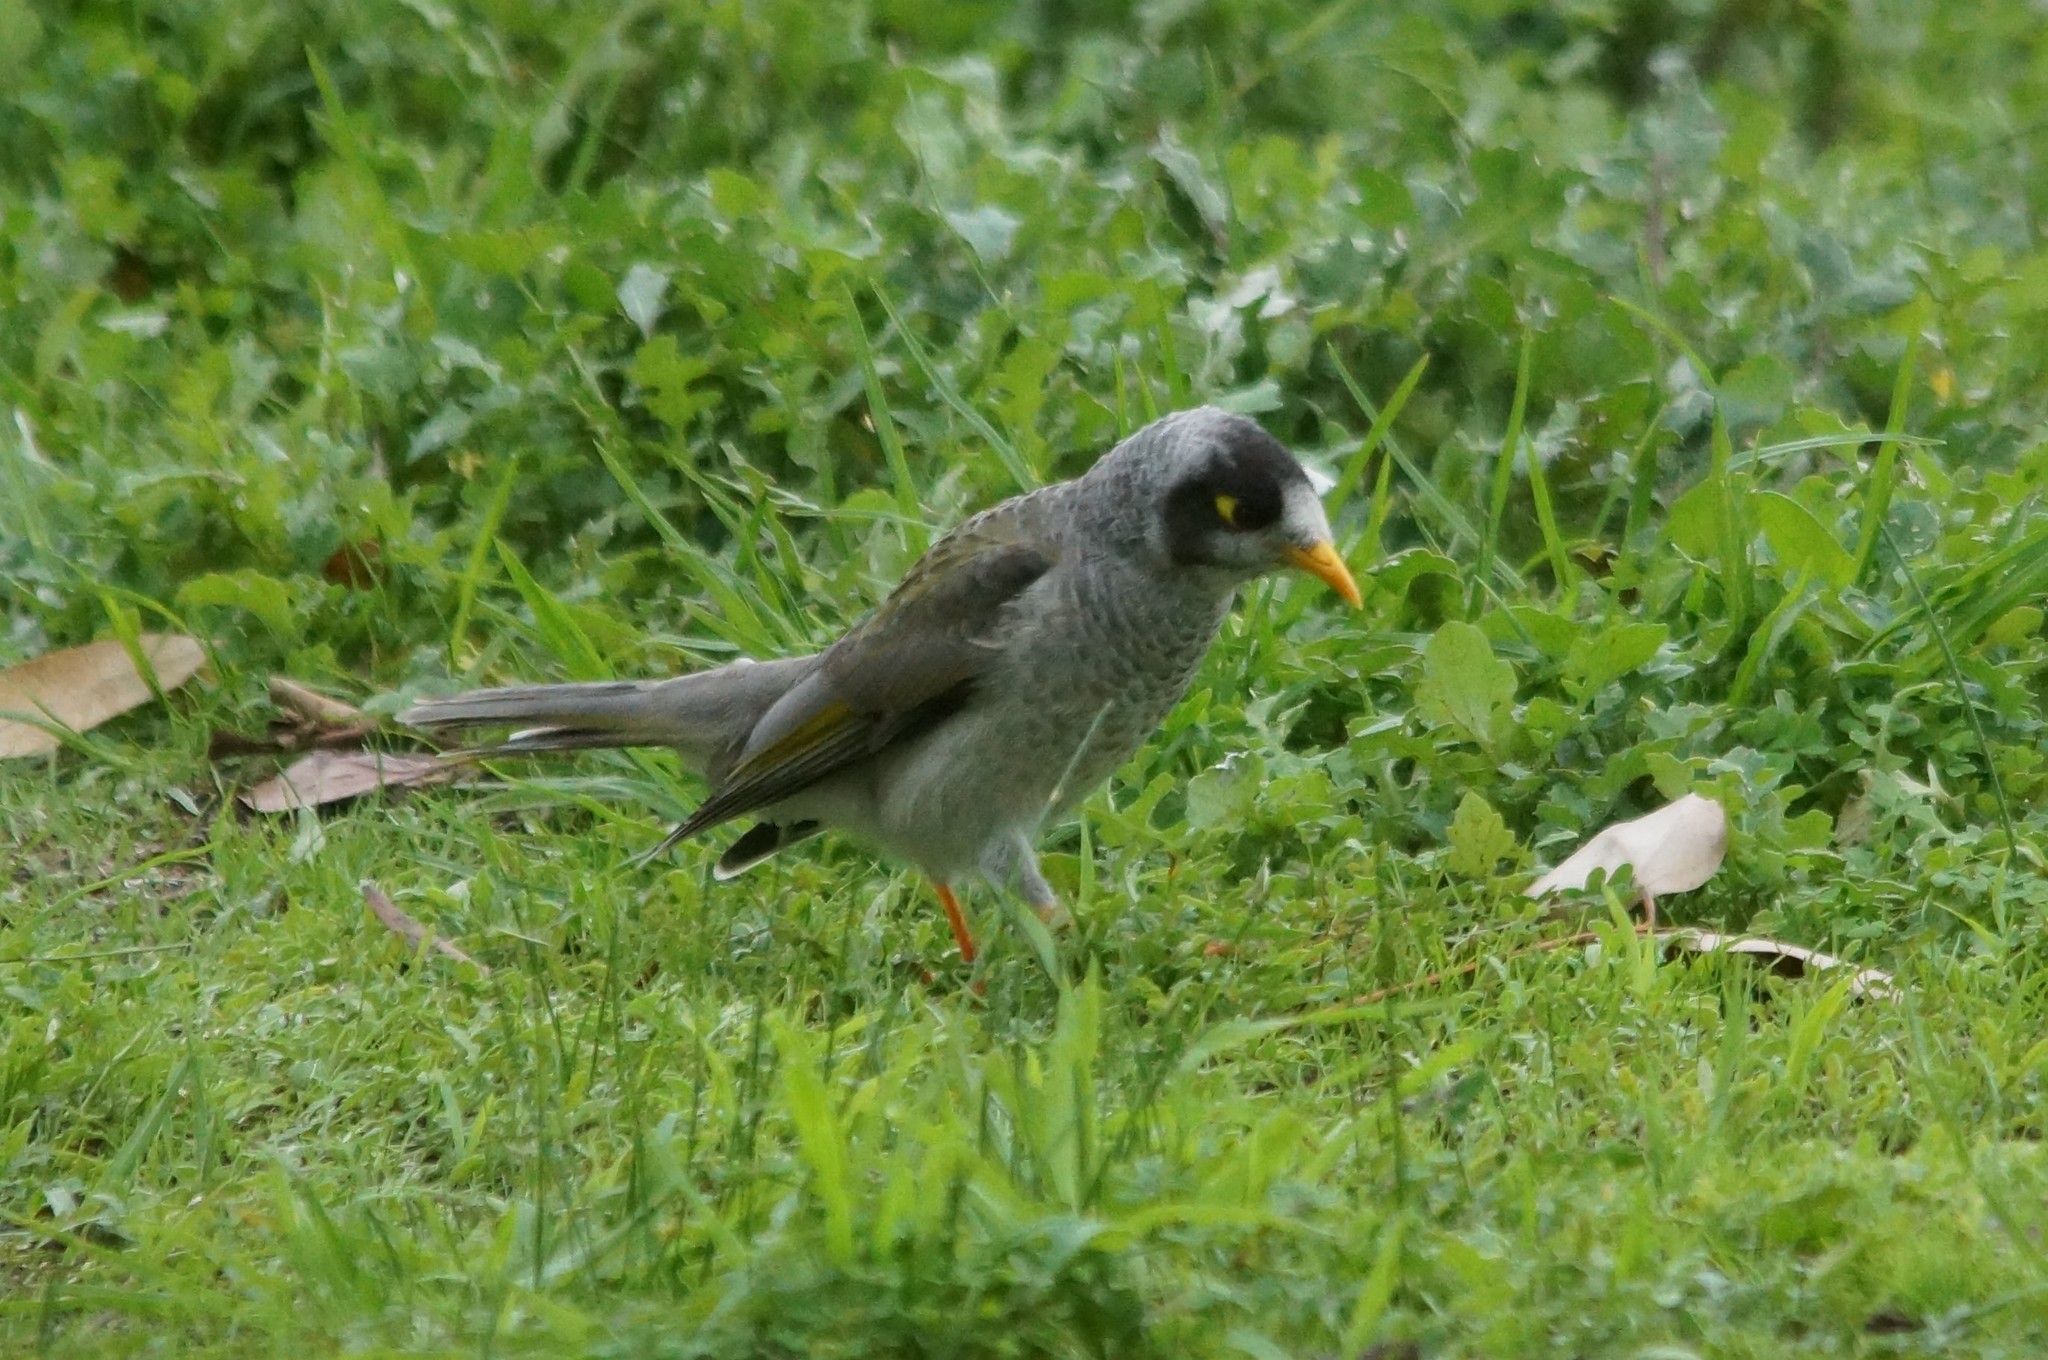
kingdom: Animalia
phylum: Chordata
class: Aves
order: Passeriformes
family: Meliphagidae
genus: Manorina
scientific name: Manorina melanocephala
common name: Noisy miner
